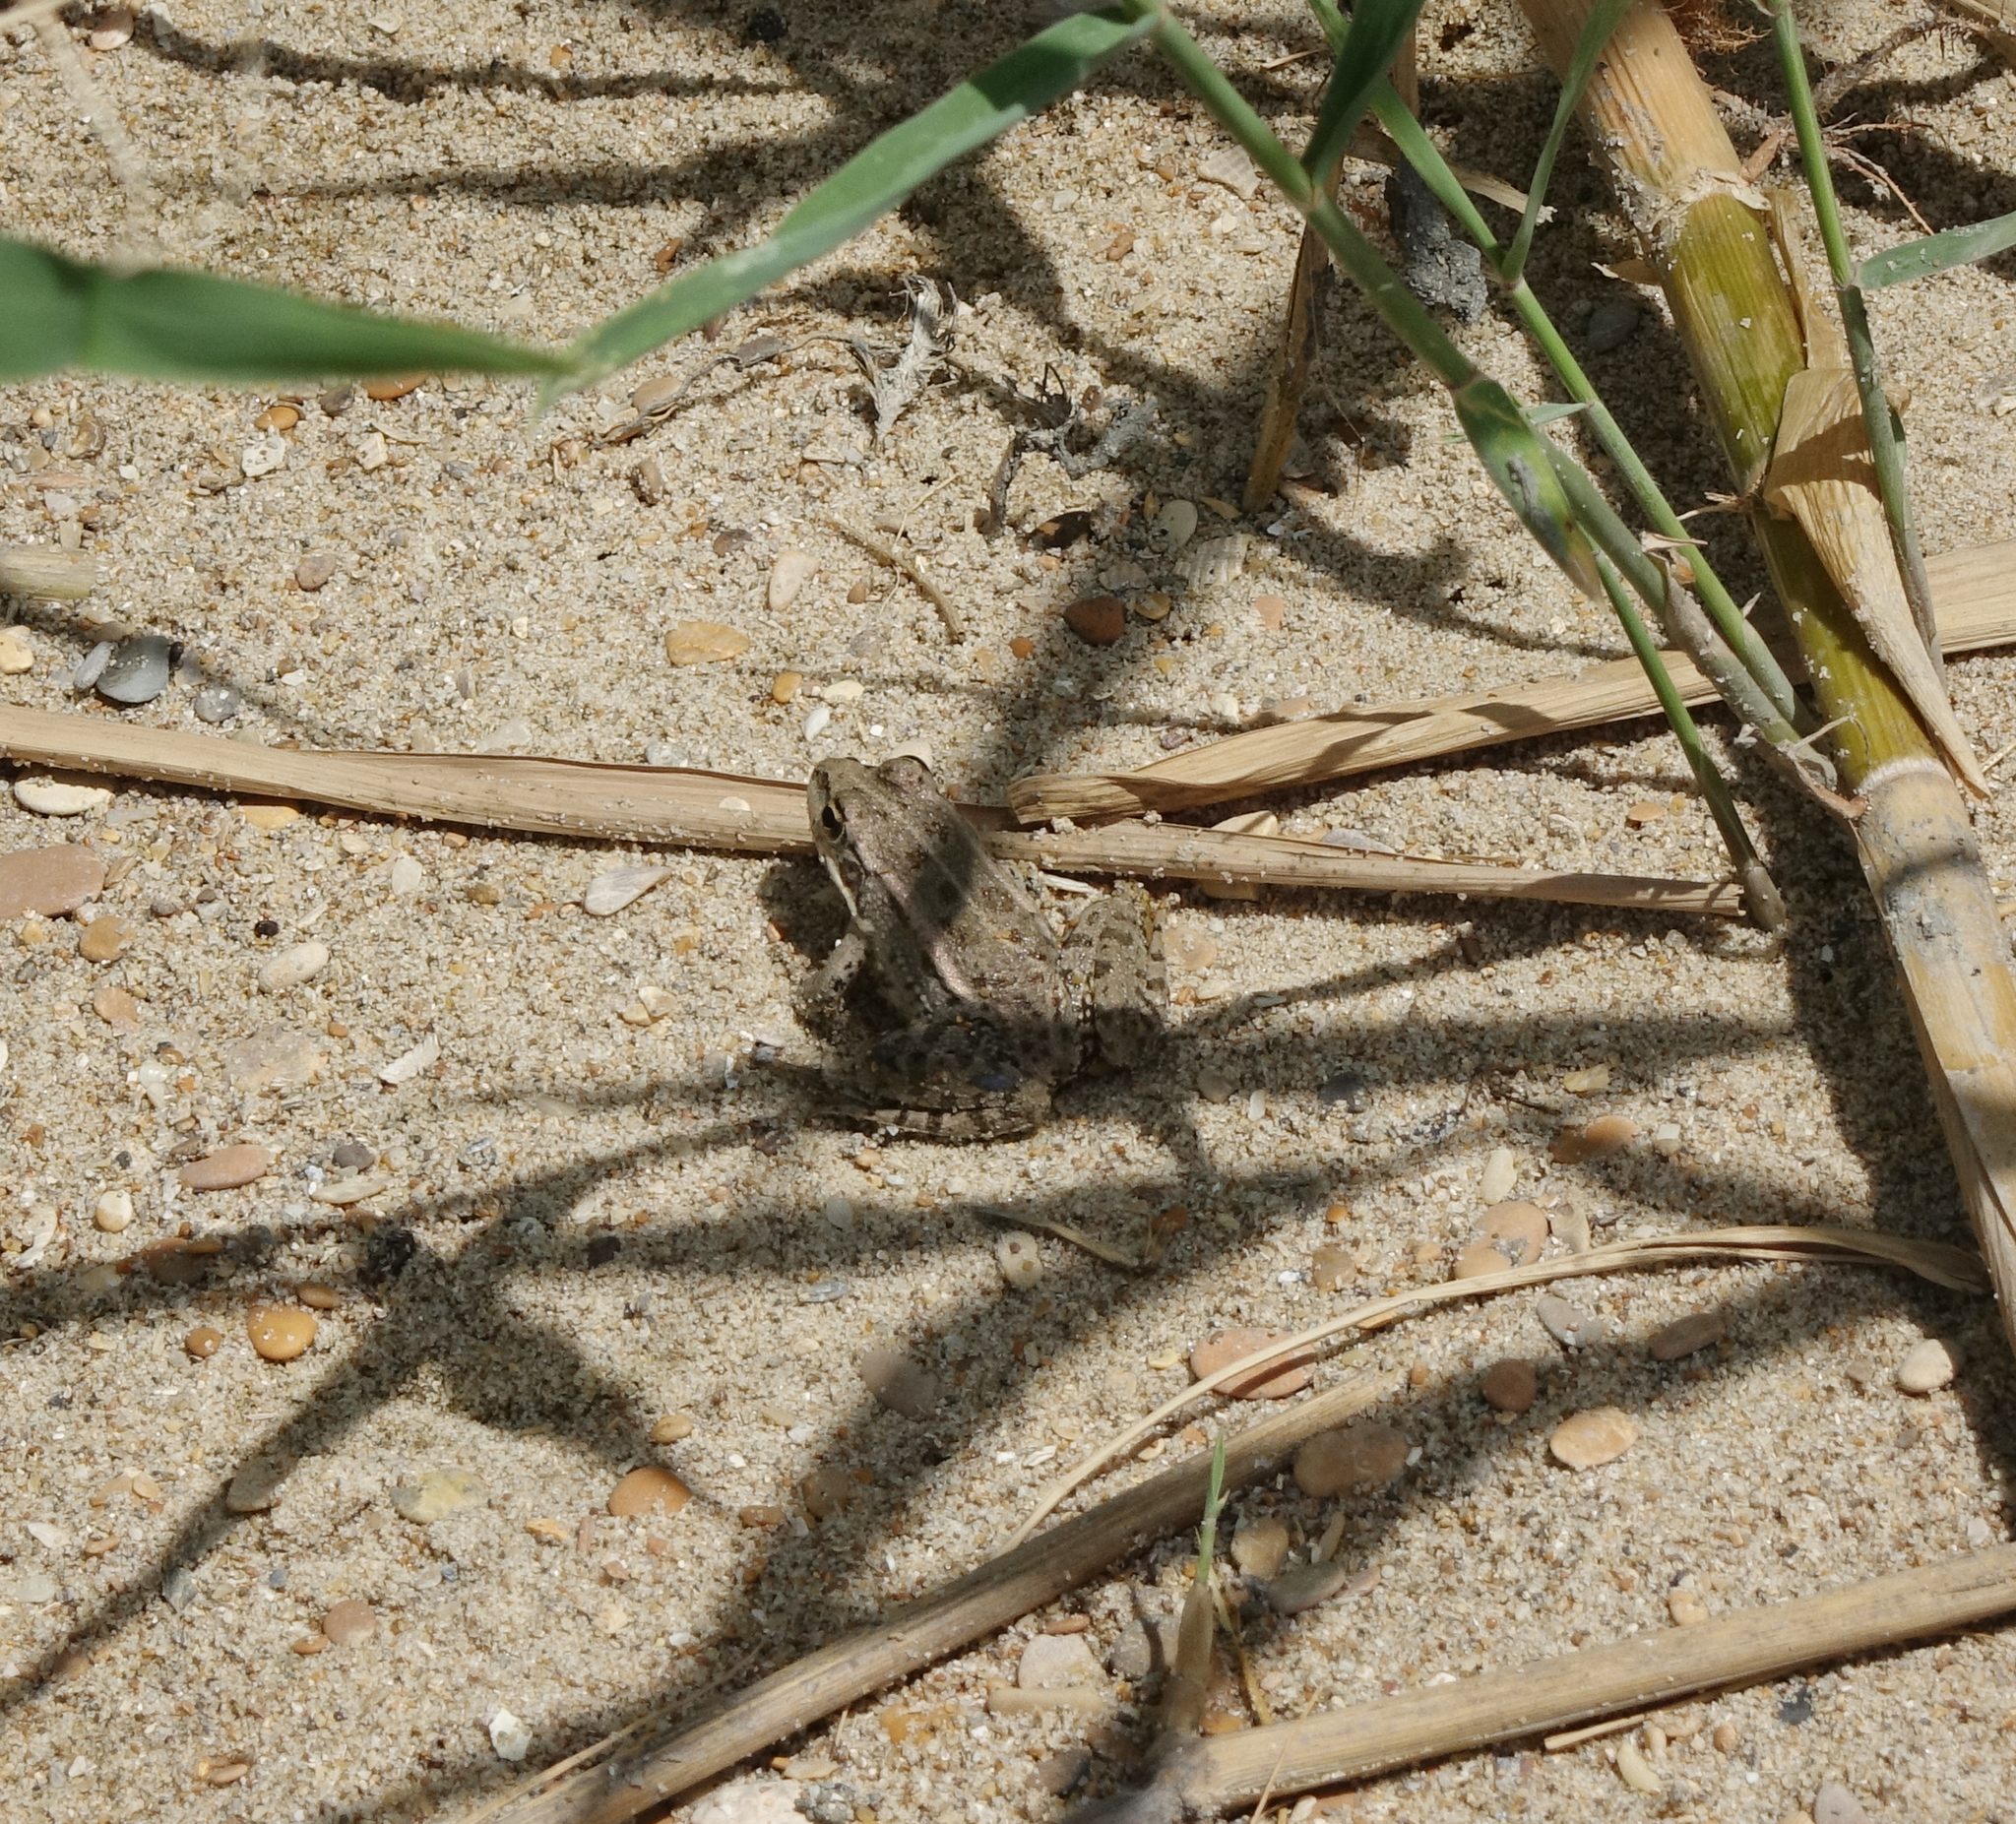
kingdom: Animalia
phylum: Chordata
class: Amphibia
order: Anura
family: Ranidae
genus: Pelophylax
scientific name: Pelophylax ridibundus
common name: Marsh frog
